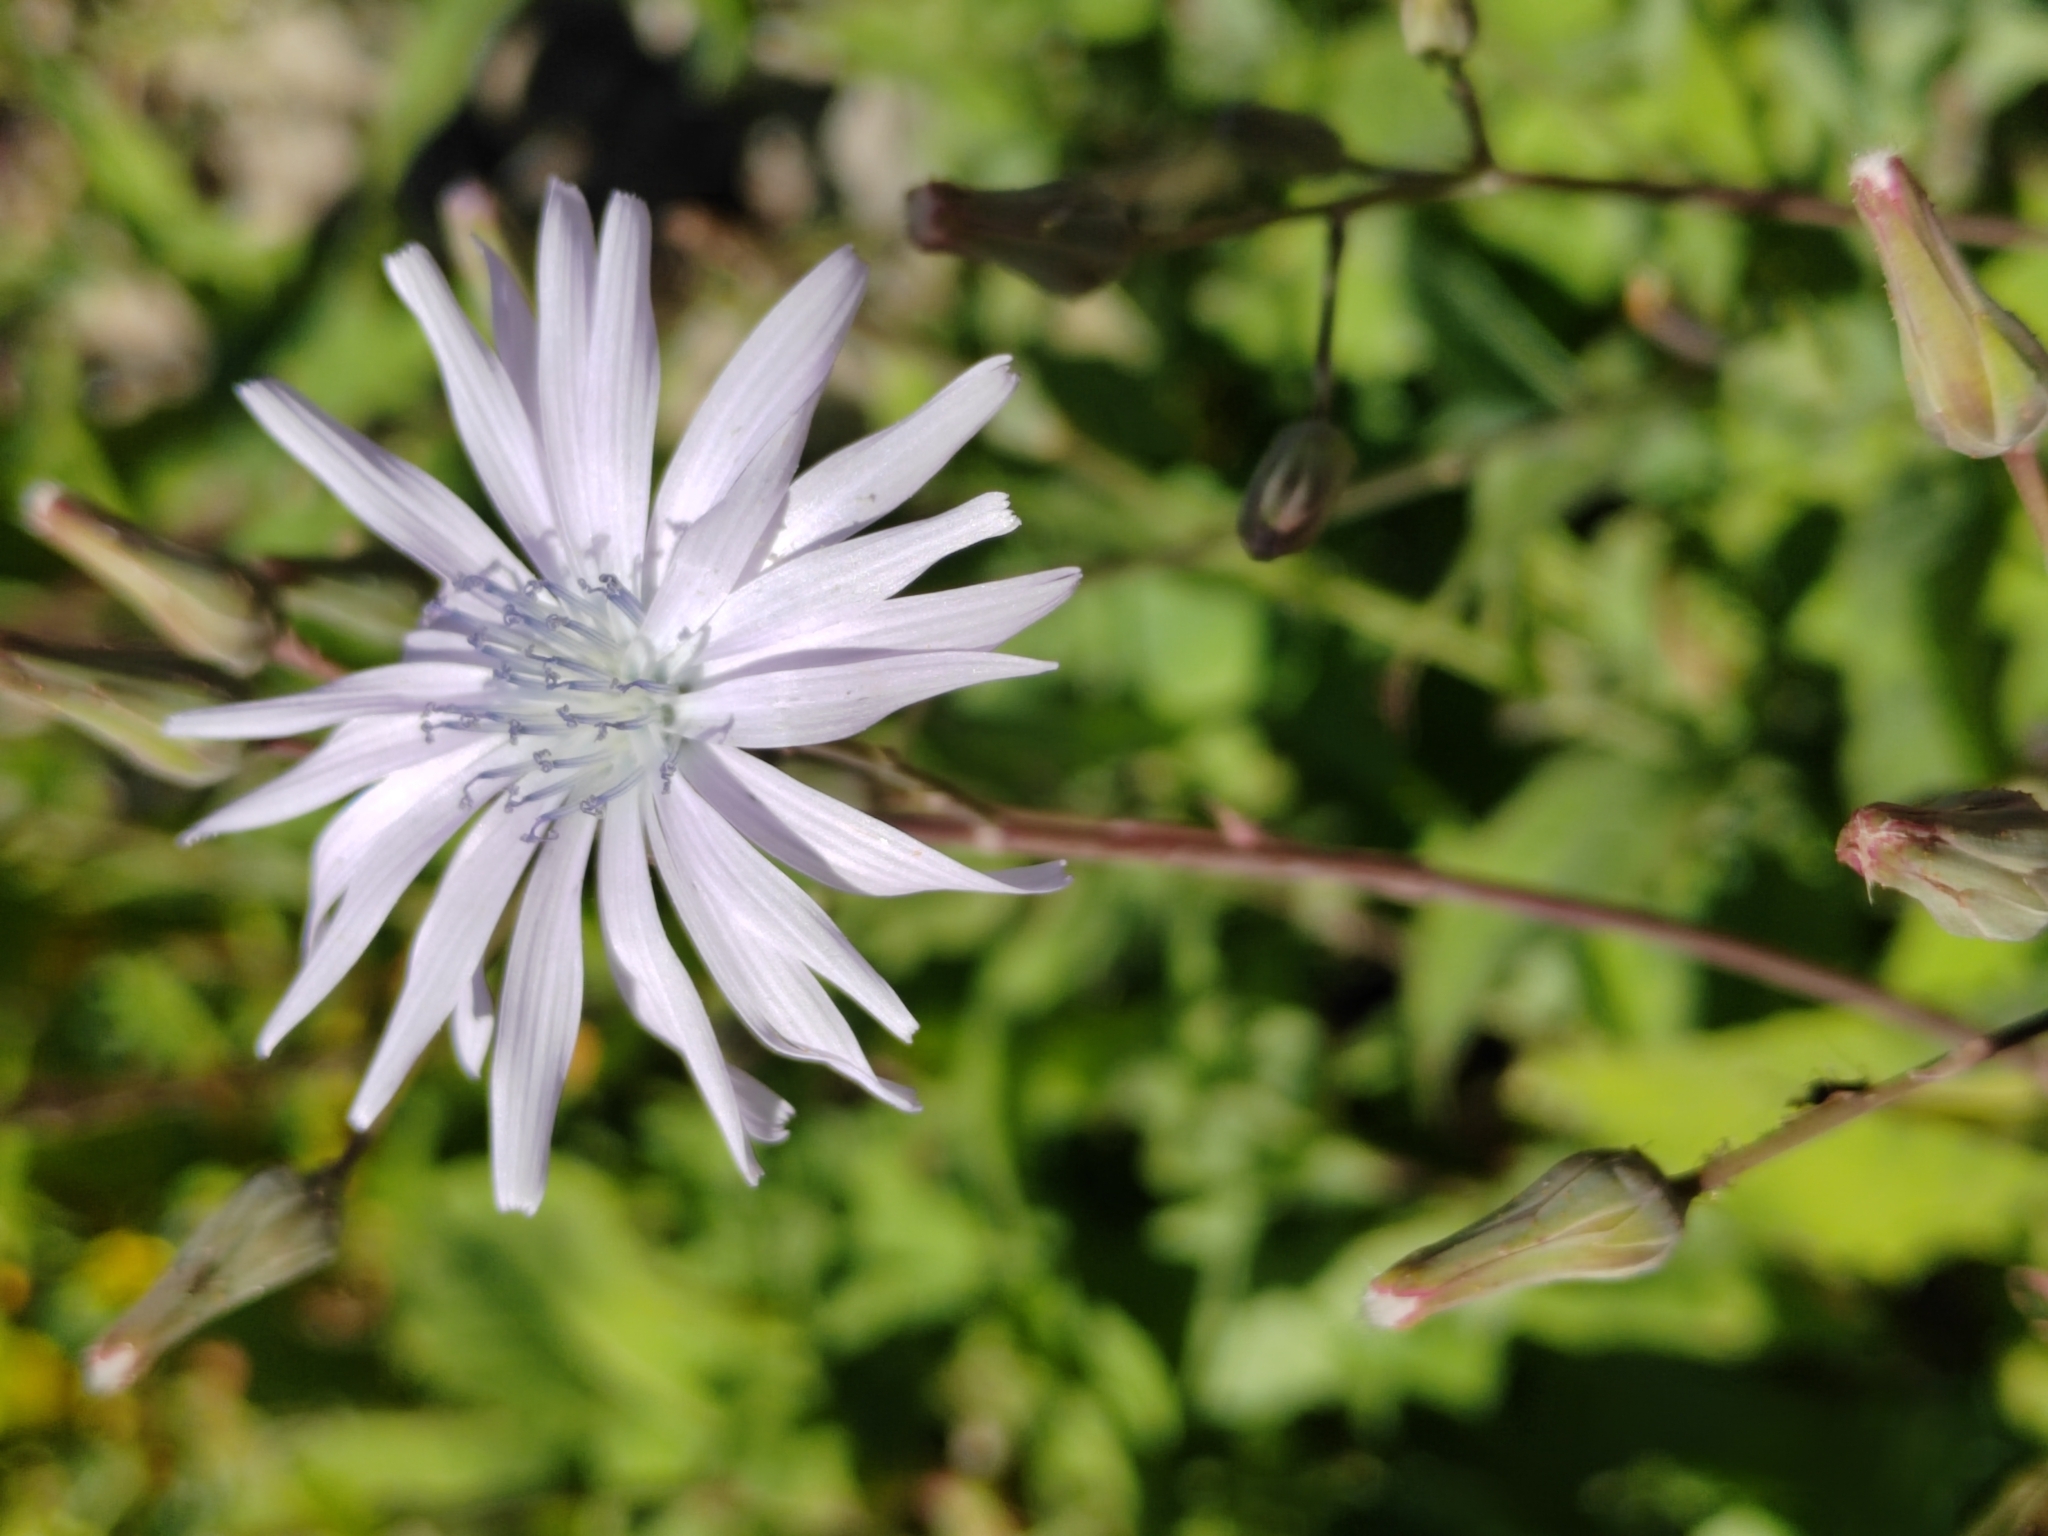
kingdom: Plantae
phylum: Tracheophyta
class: Magnoliopsida
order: Asterales
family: Asteraceae
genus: Lactuca
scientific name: Lactuca racemosa
